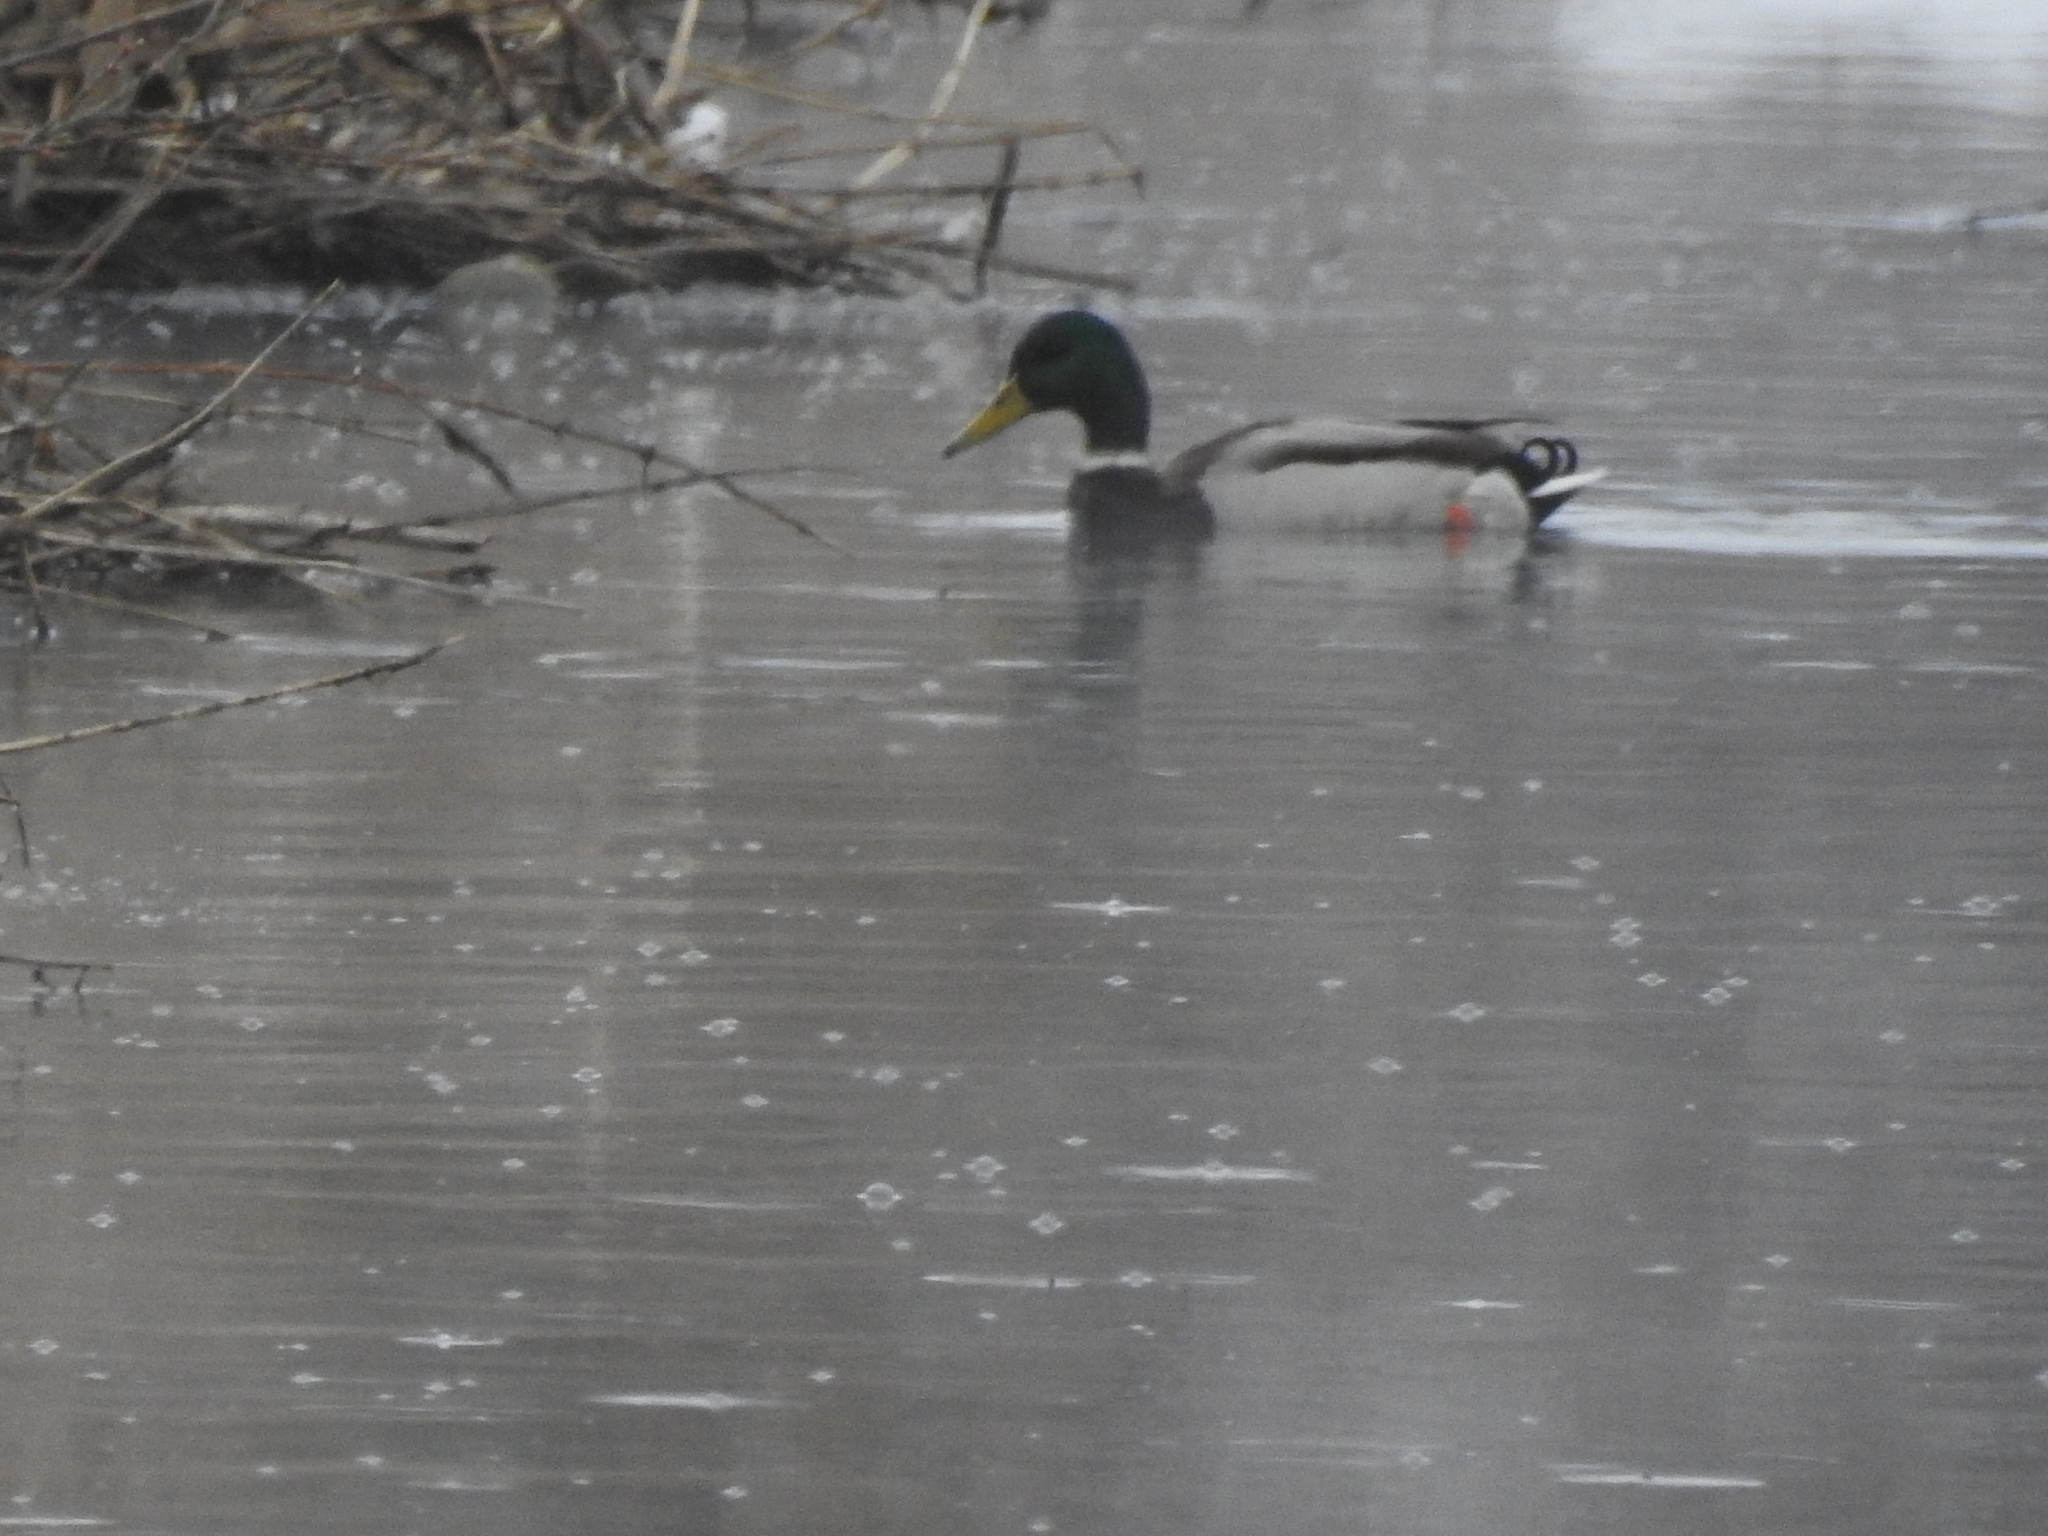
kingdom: Animalia
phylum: Chordata
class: Aves
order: Anseriformes
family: Anatidae
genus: Anas
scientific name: Anas platyrhynchos
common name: Mallard
